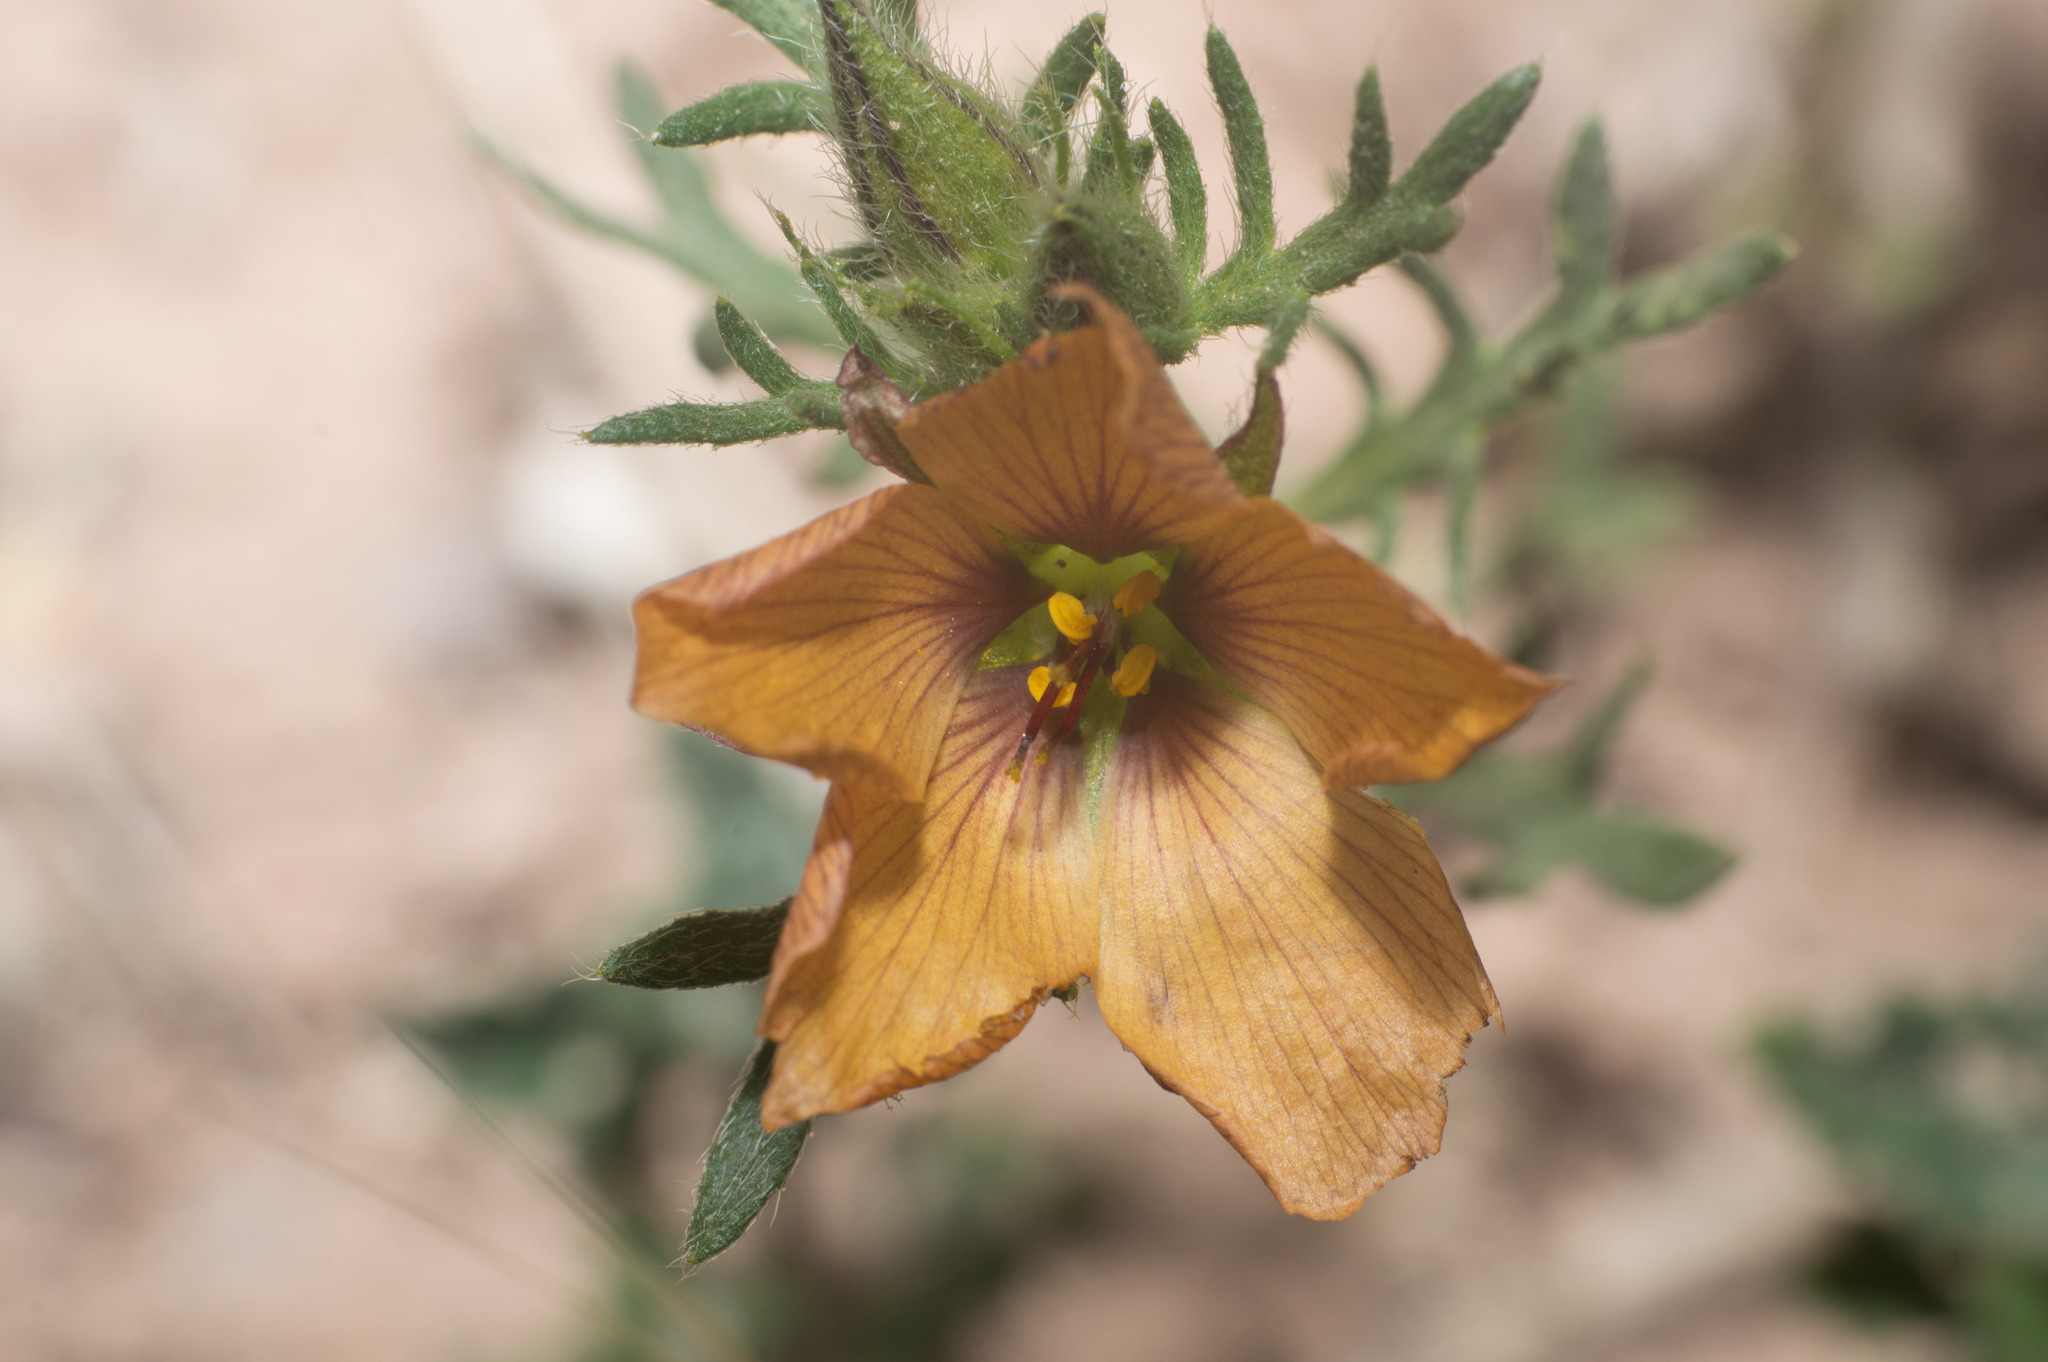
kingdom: Plantae
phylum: Tracheophyta
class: Magnoliopsida
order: Malpighiales
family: Turneraceae
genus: Turnera
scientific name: Turnera sidoides
